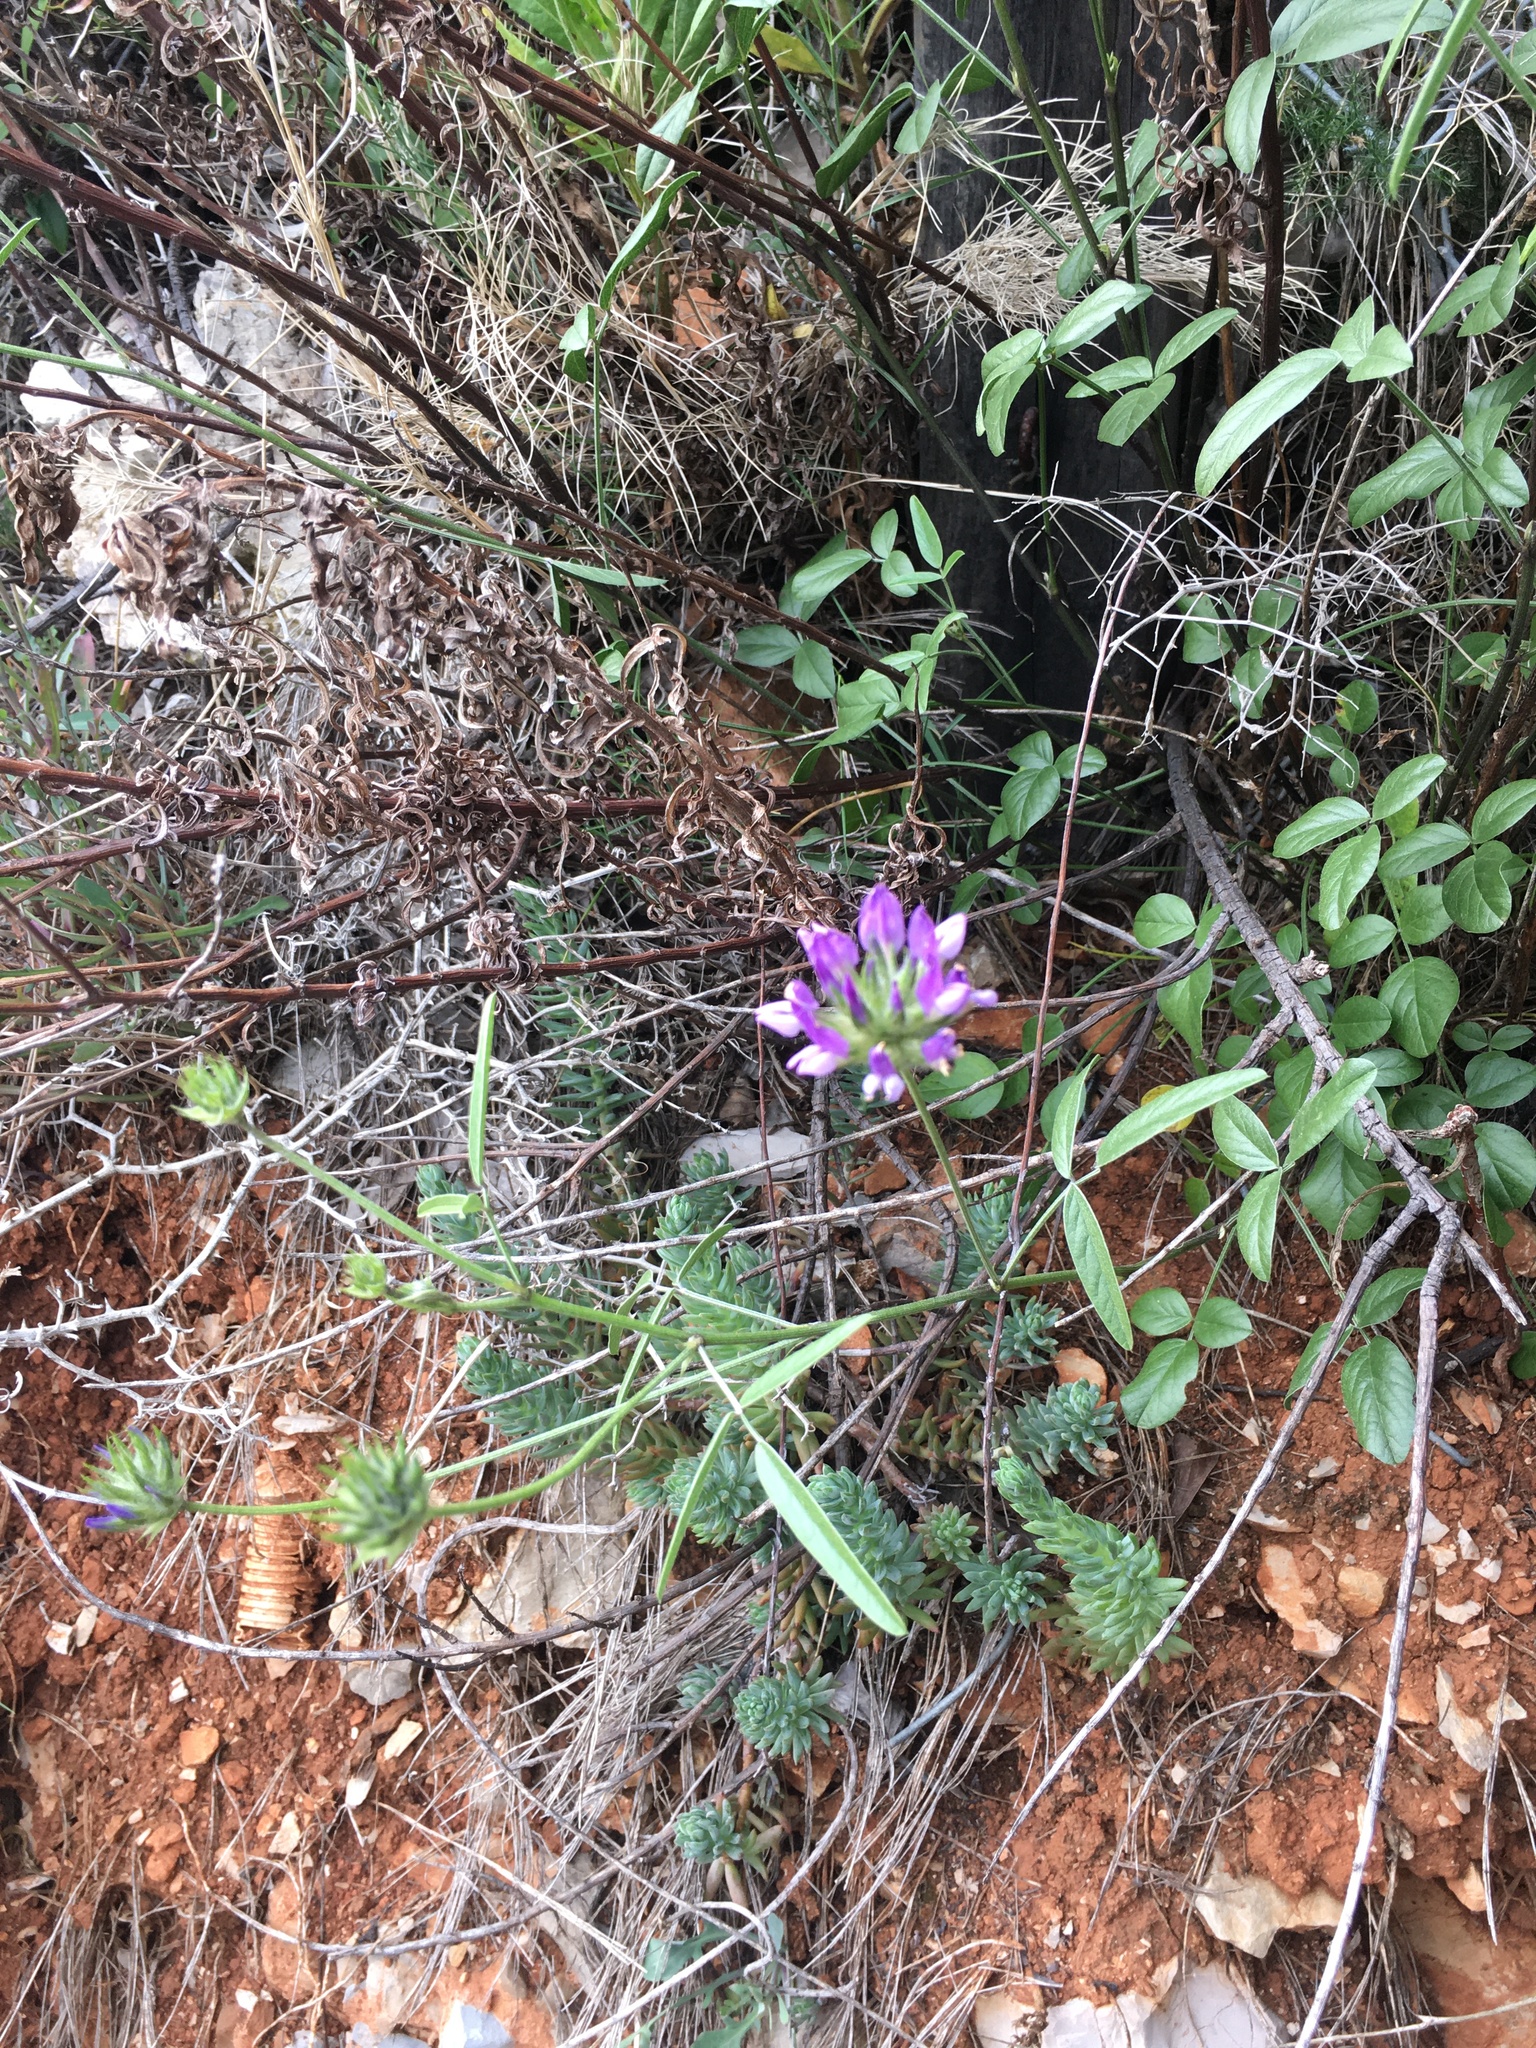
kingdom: Plantae
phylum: Tracheophyta
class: Magnoliopsida
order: Fabales
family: Fabaceae
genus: Bituminaria
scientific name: Bituminaria bituminosa
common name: Arabian pea
